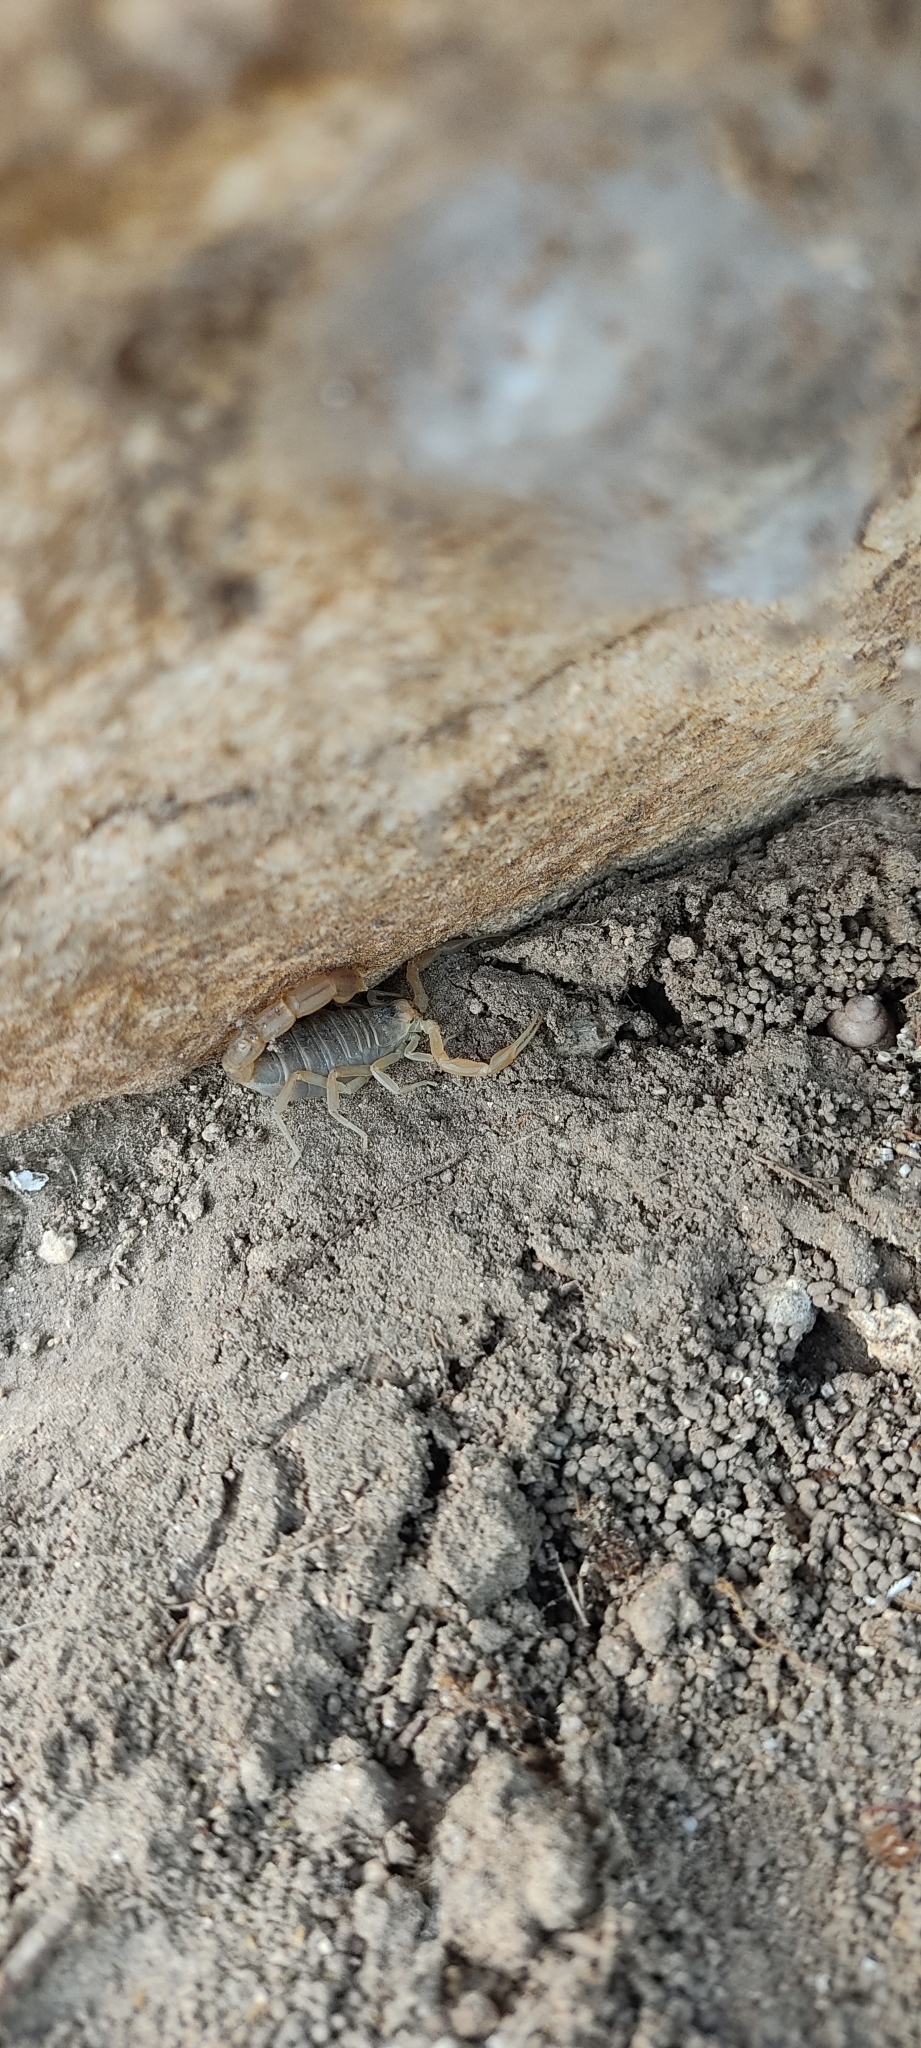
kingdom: Animalia
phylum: Arthropoda
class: Arachnida
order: Scorpiones
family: Buthidae
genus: Buthus
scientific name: Buthus occitanus
